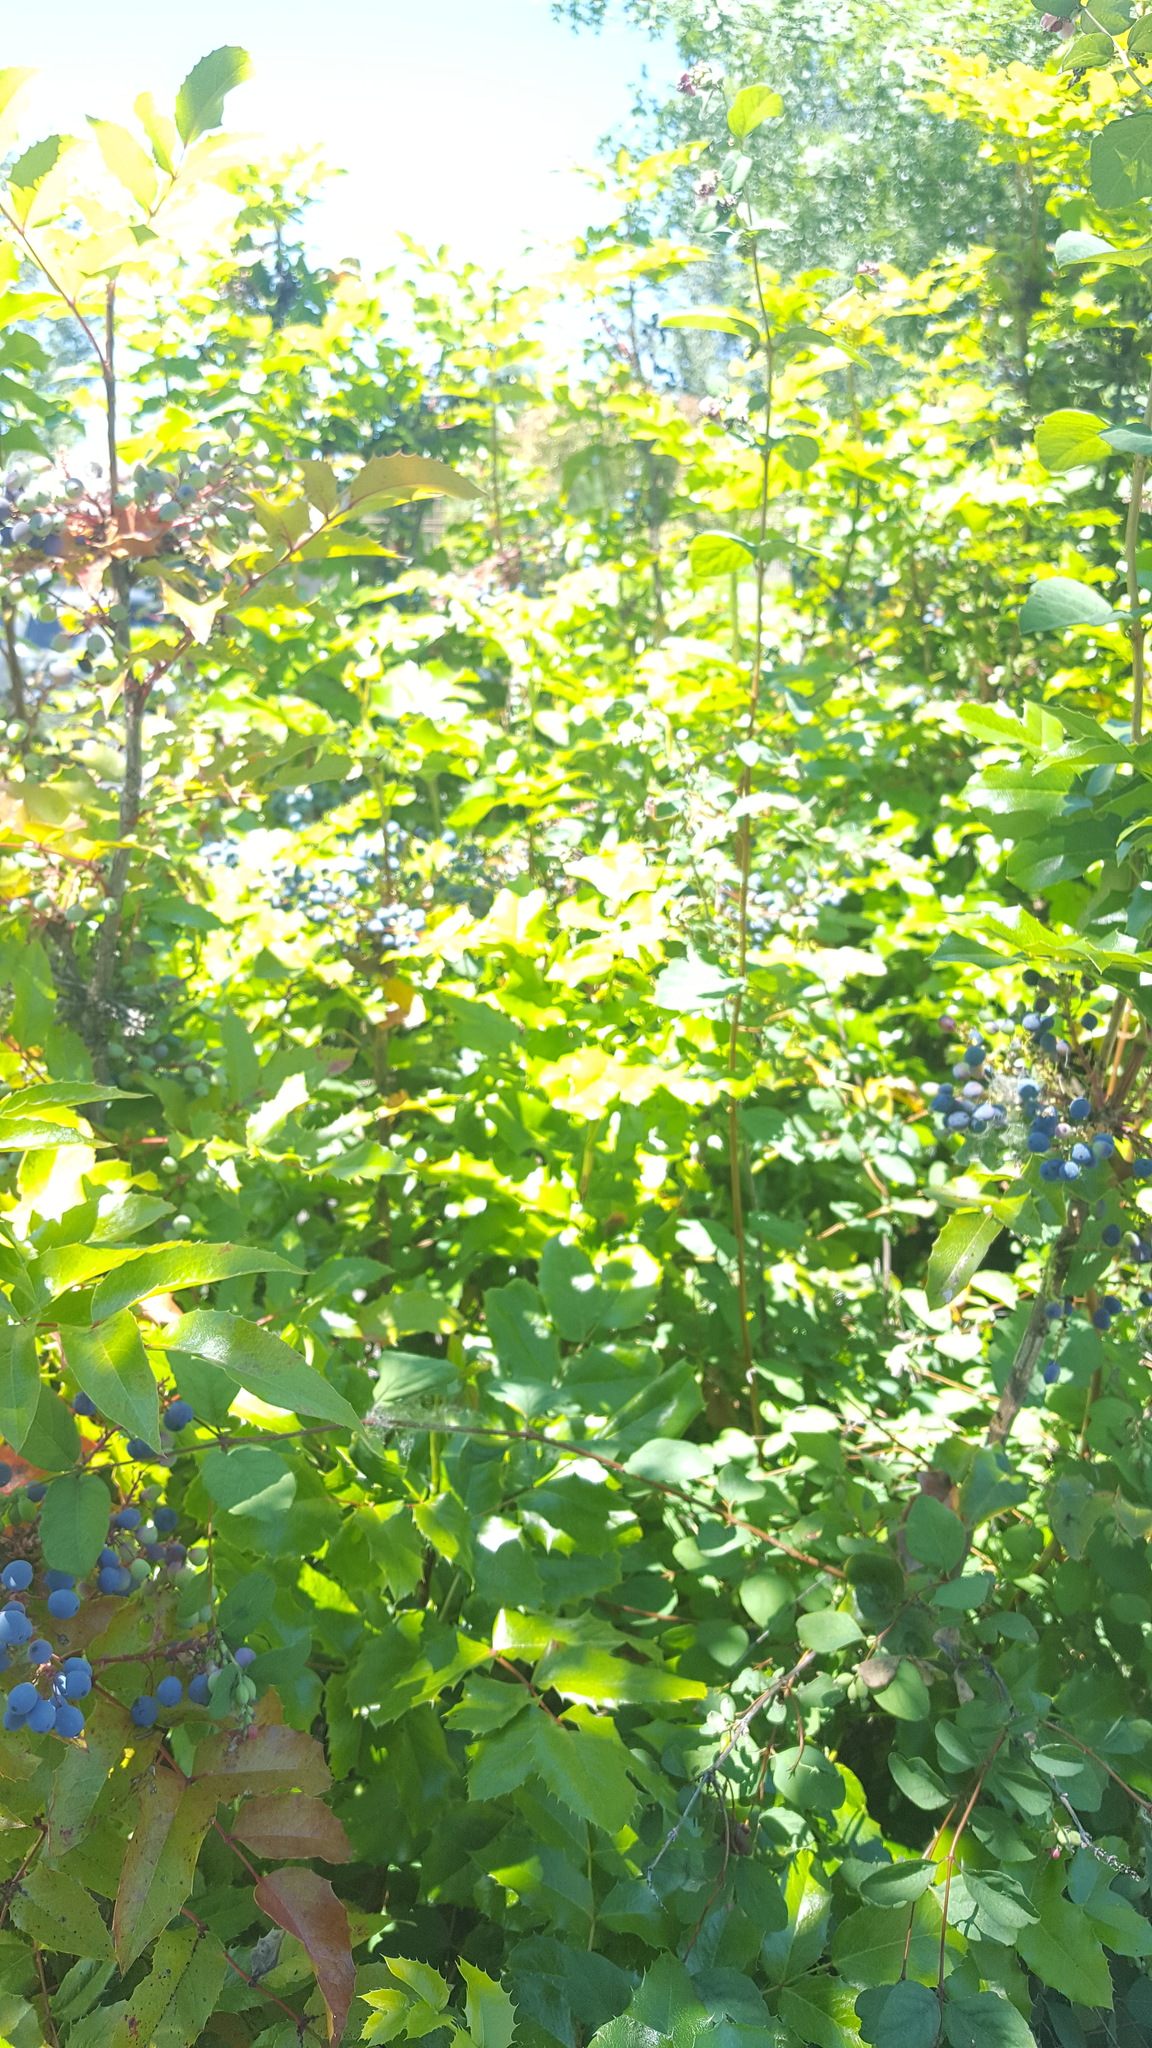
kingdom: Plantae
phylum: Tracheophyta
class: Magnoliopsida
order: Ranunculales
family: Berberidaceae
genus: Mahonia
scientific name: Mahonia aquifolium
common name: Oregon-grape
